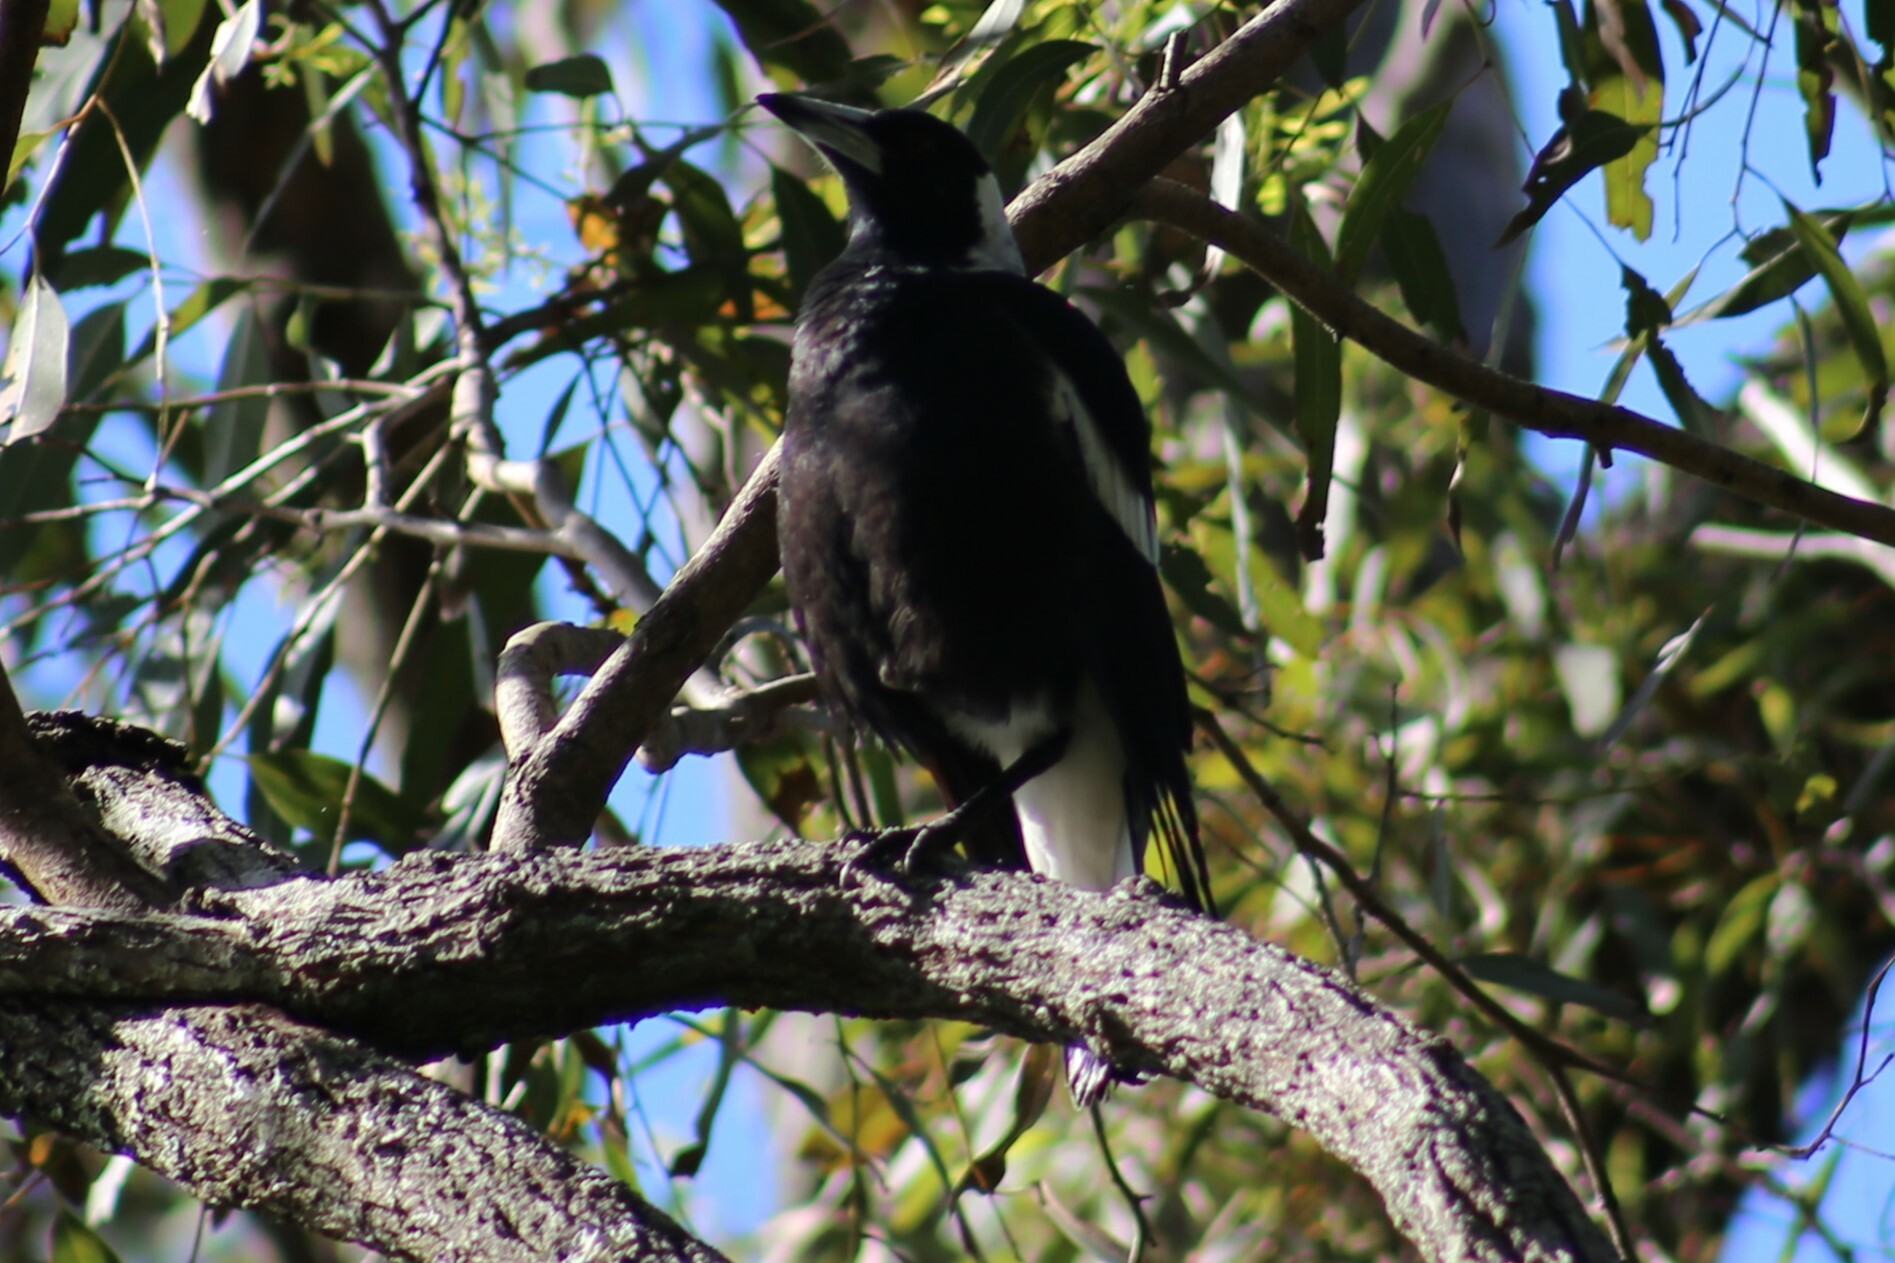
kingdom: Animalia
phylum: Chordata
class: Aves
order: Passeriformes
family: Cracticidae
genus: Gymnorhina
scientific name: Gymnorhina tibicen
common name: Australian magpie
